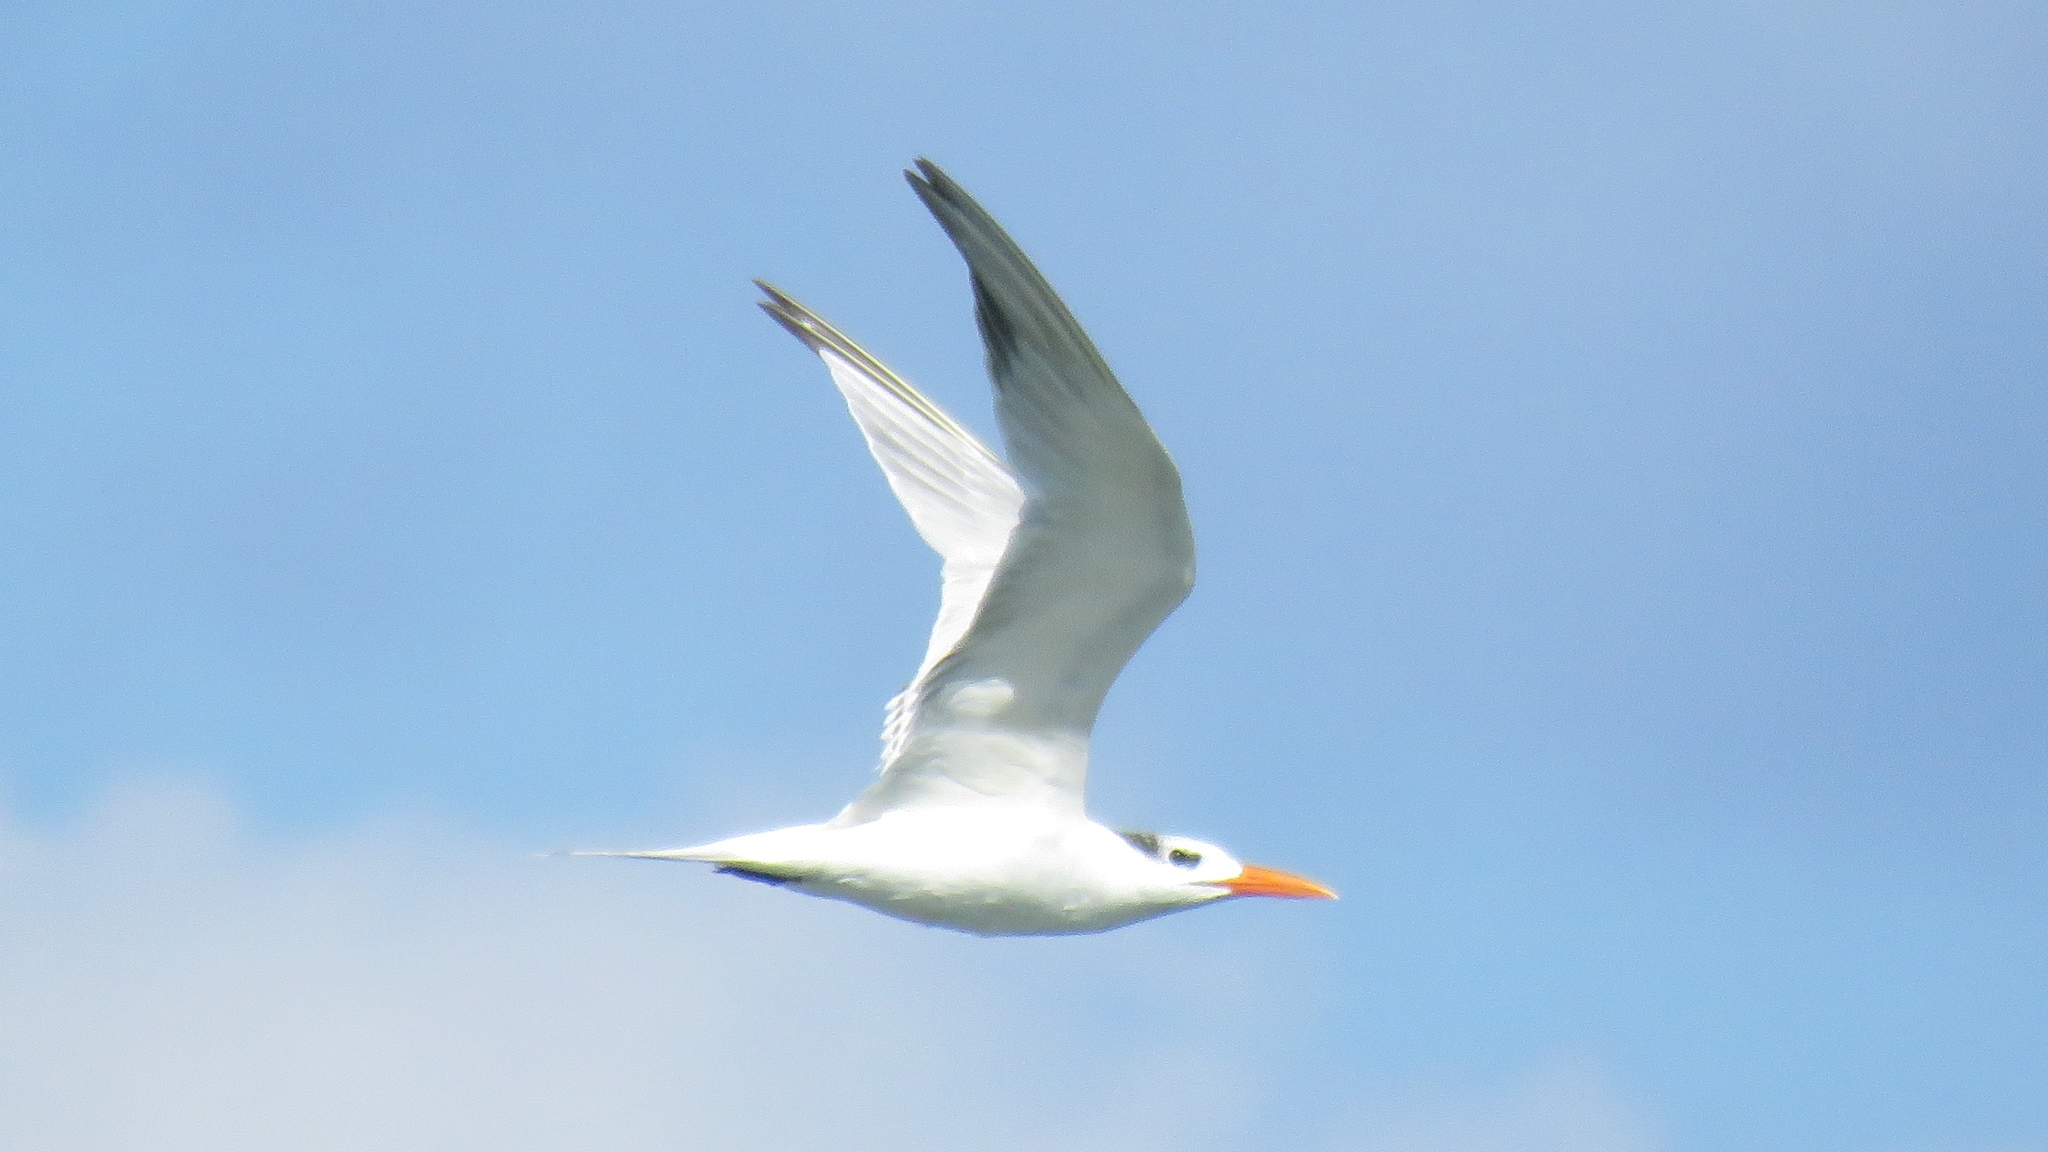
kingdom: Animalia
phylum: Chordata
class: Aves
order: Charadriiformes
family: Laridae
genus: Thalasseus
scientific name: Thalasseus maximus
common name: Royal tern
